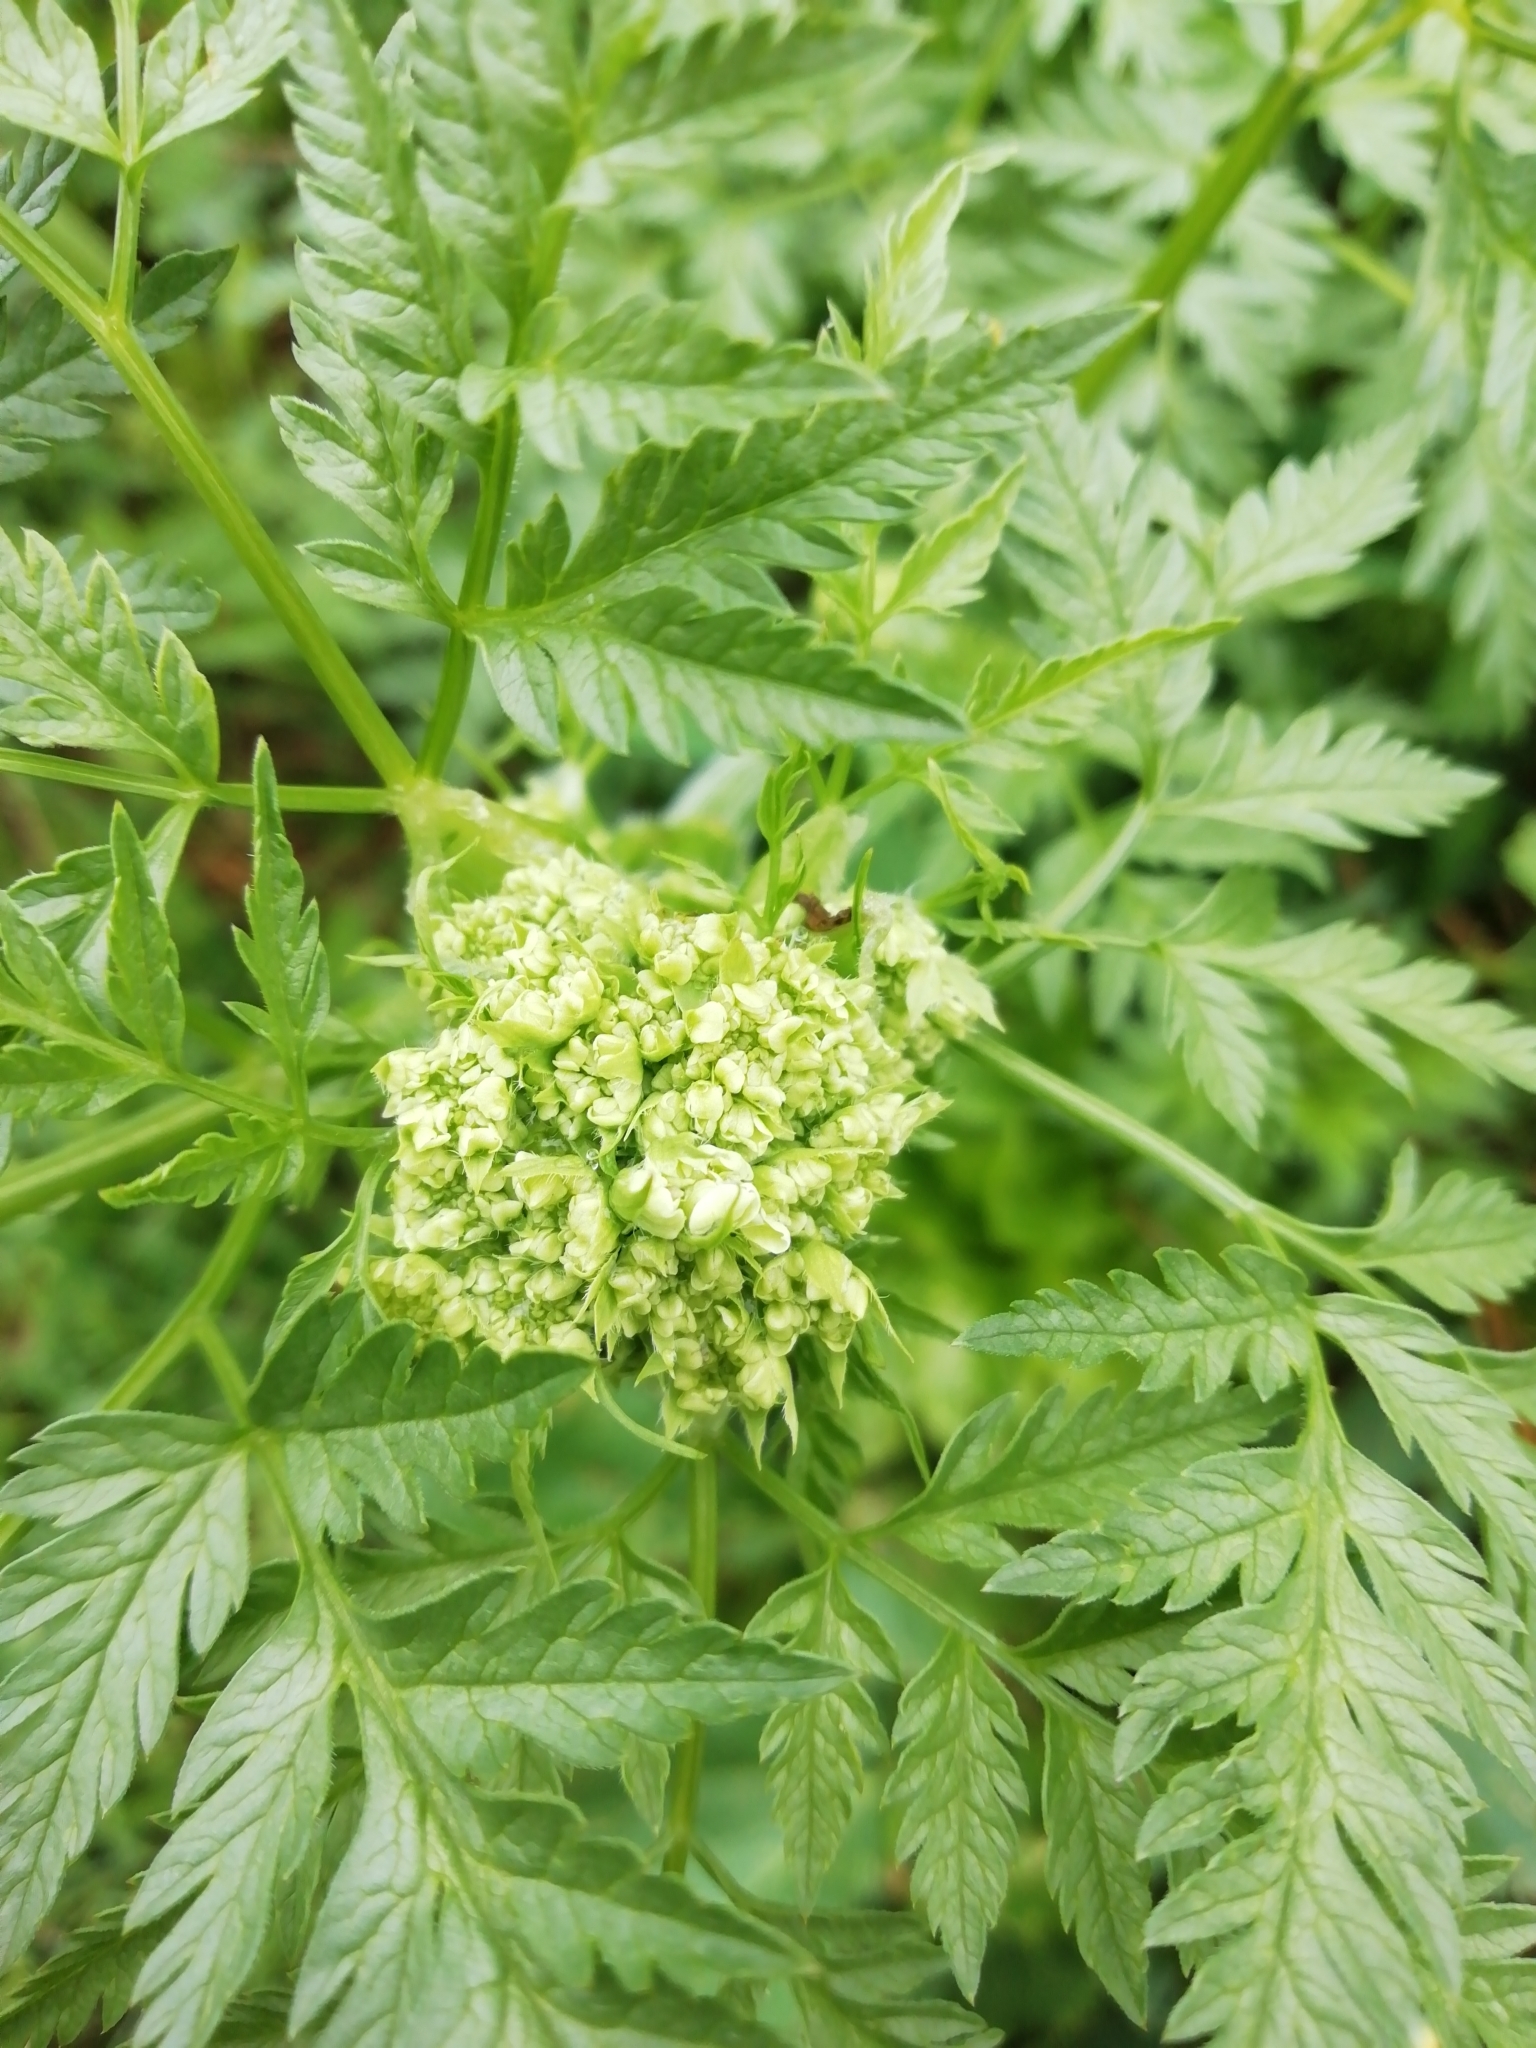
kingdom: Plantae
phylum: Tracheophyta
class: Magnoliopsida
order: Apiales
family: Apiaceae
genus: Anthriscus
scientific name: Anthriscus sylvestris
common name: Cow parsley
